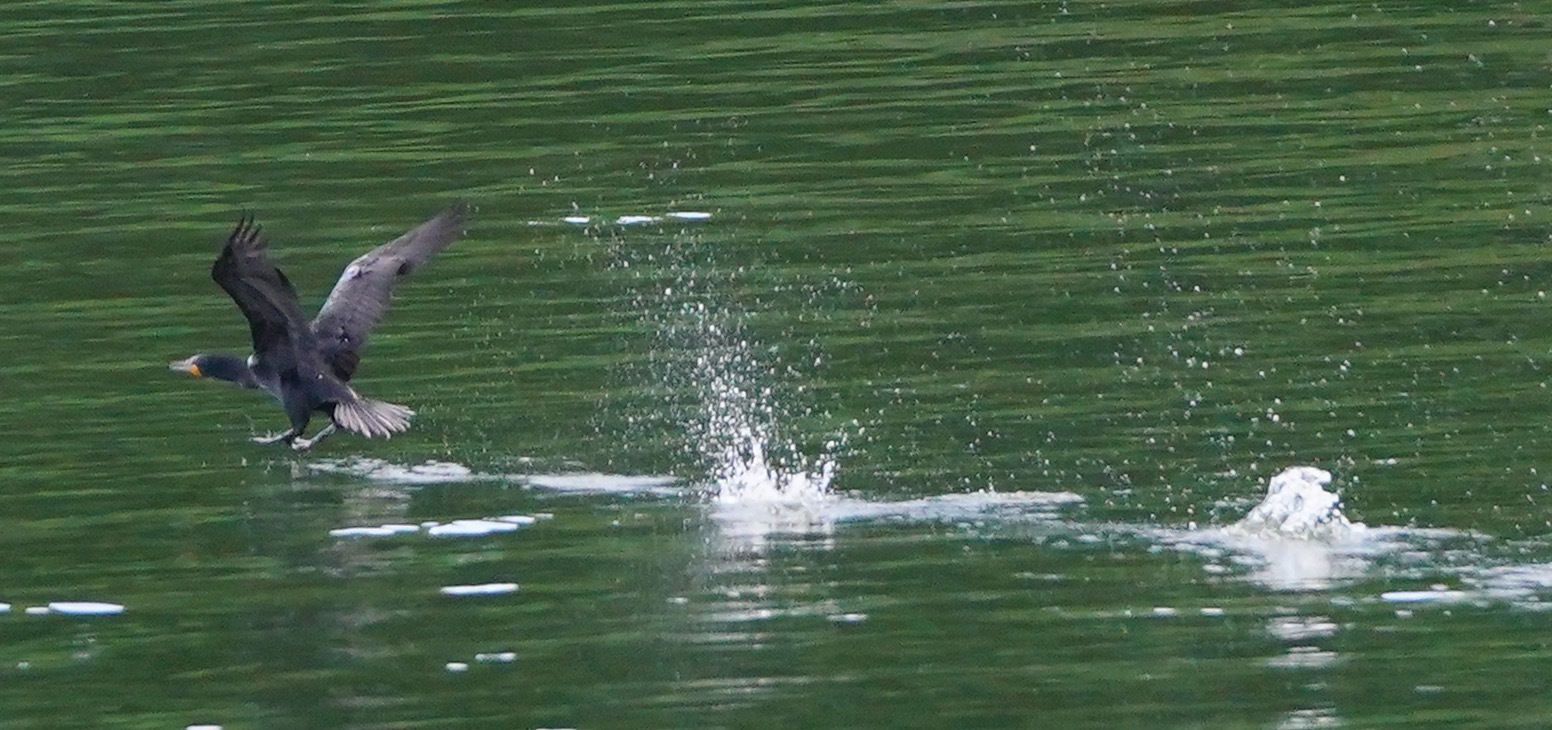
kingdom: Animalia
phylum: Chordata
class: Aves
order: Suliformes
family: Phalacrocoracidae
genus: Phalacrocorax
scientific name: Phalacrocorax auritus
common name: Double-crested cormorant
